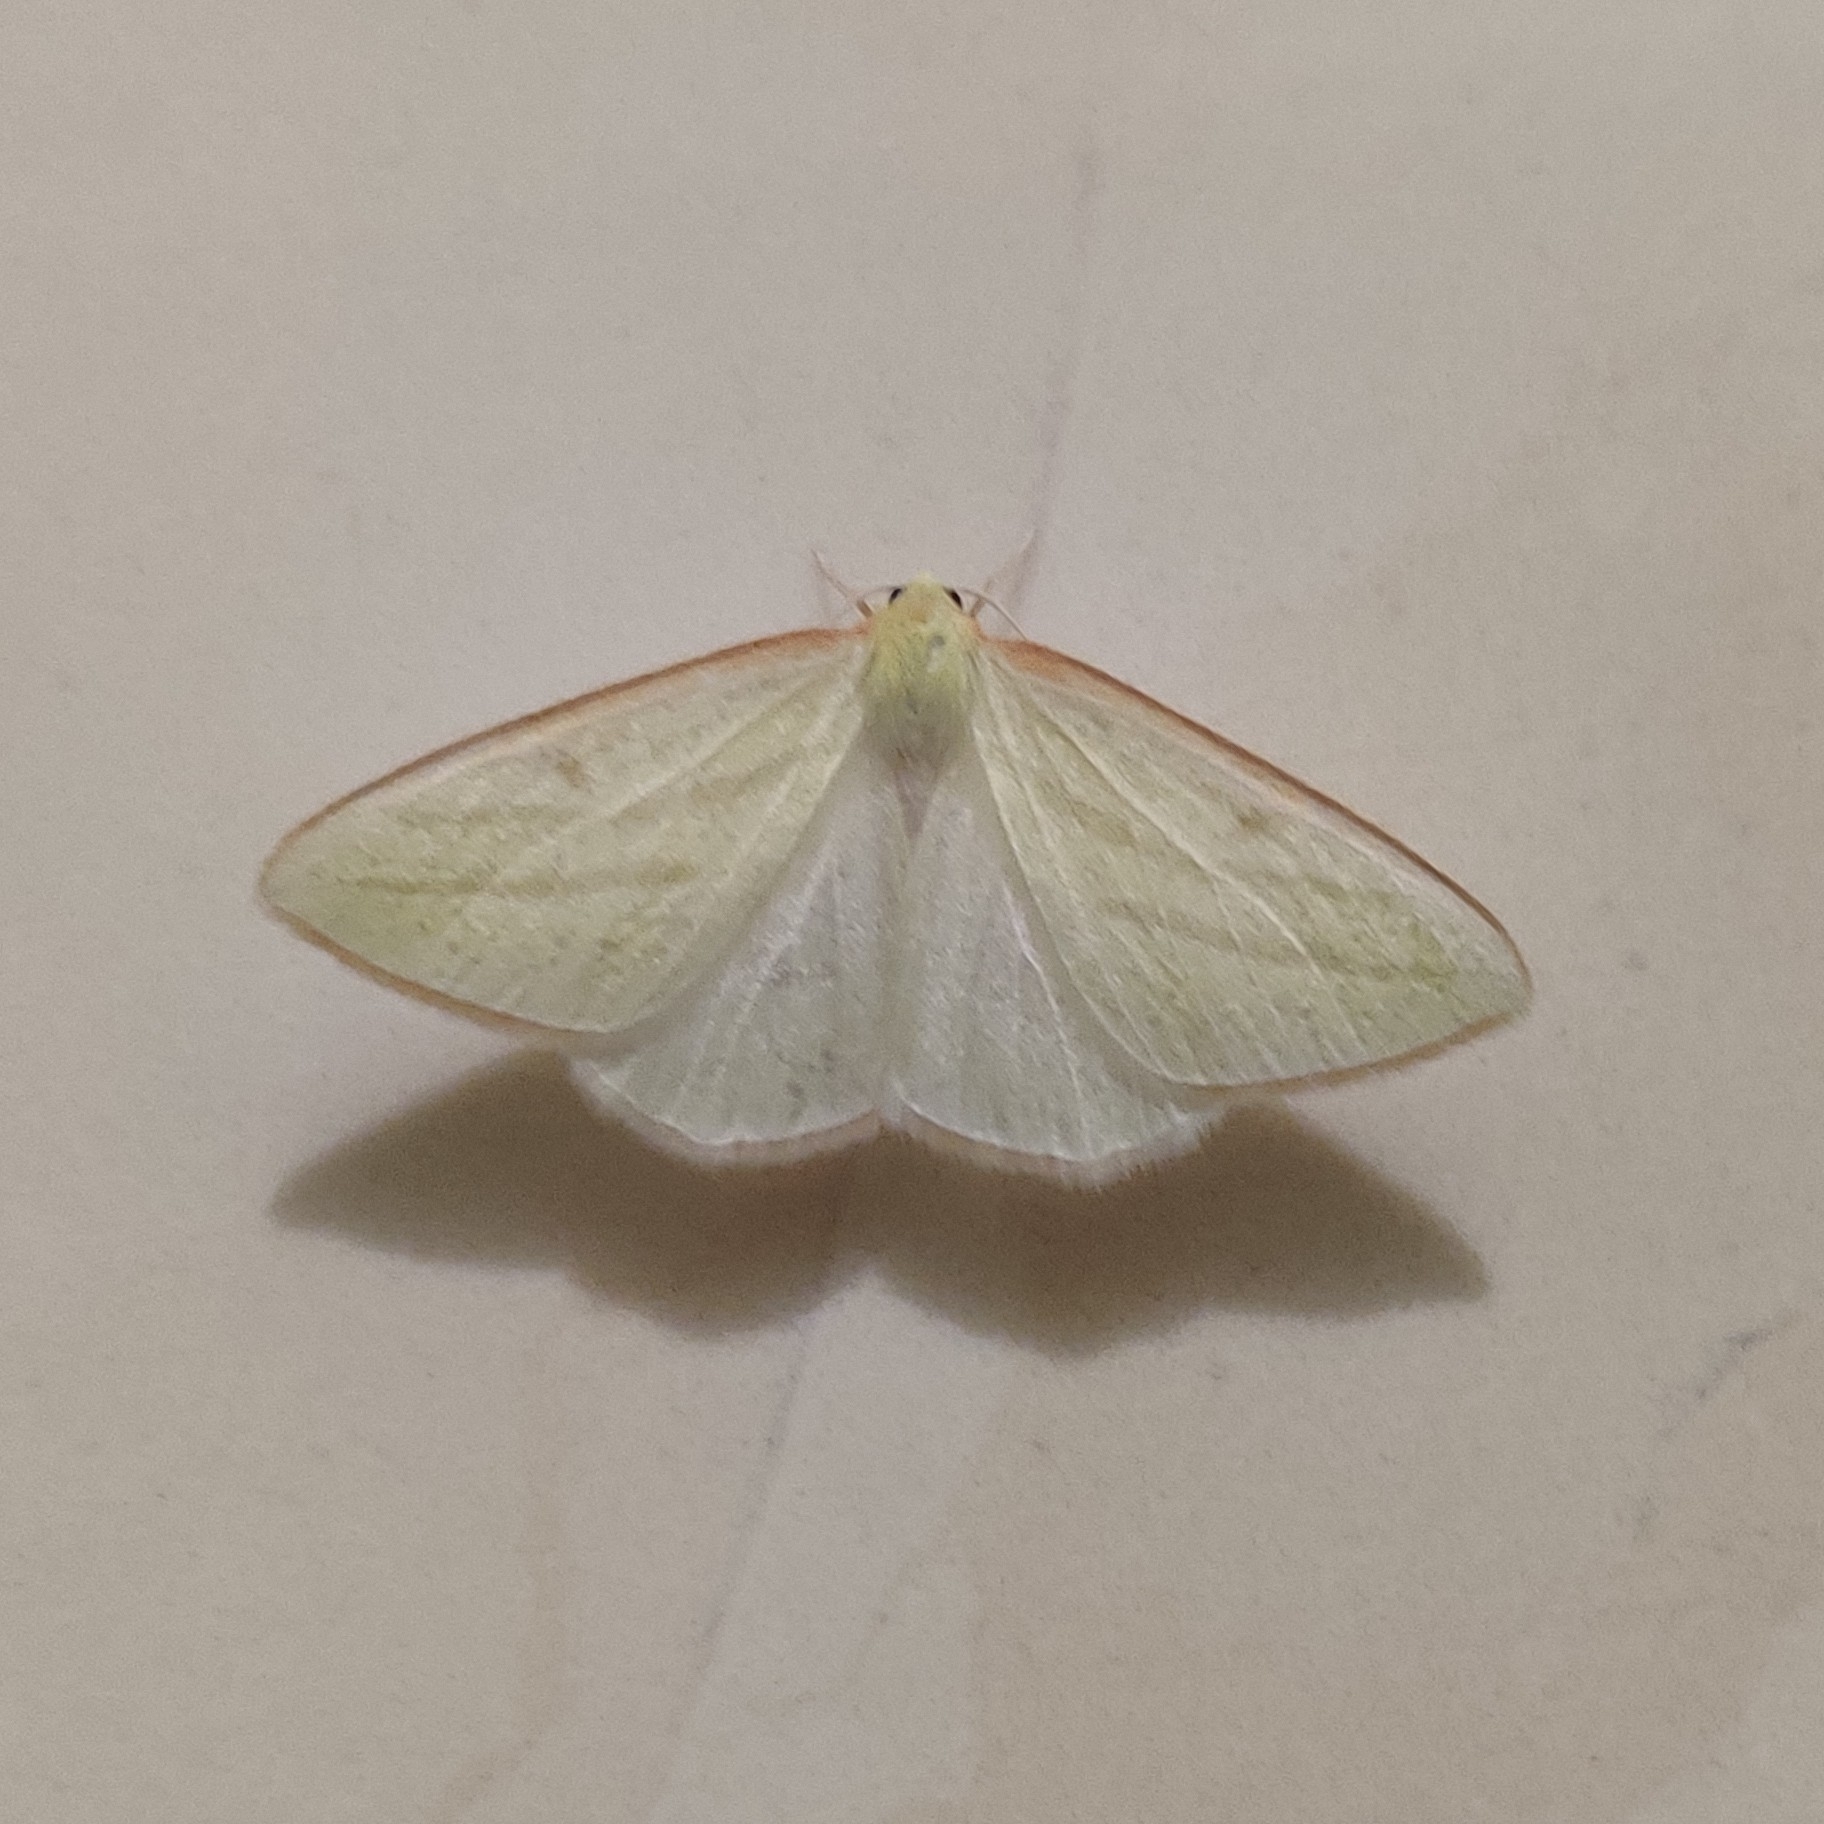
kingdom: Animalia
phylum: Arthropoda
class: Insecta
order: Lepidoptera
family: Geometridae
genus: Rhodometra
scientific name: Rhodometra sacraria
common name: Vestal
